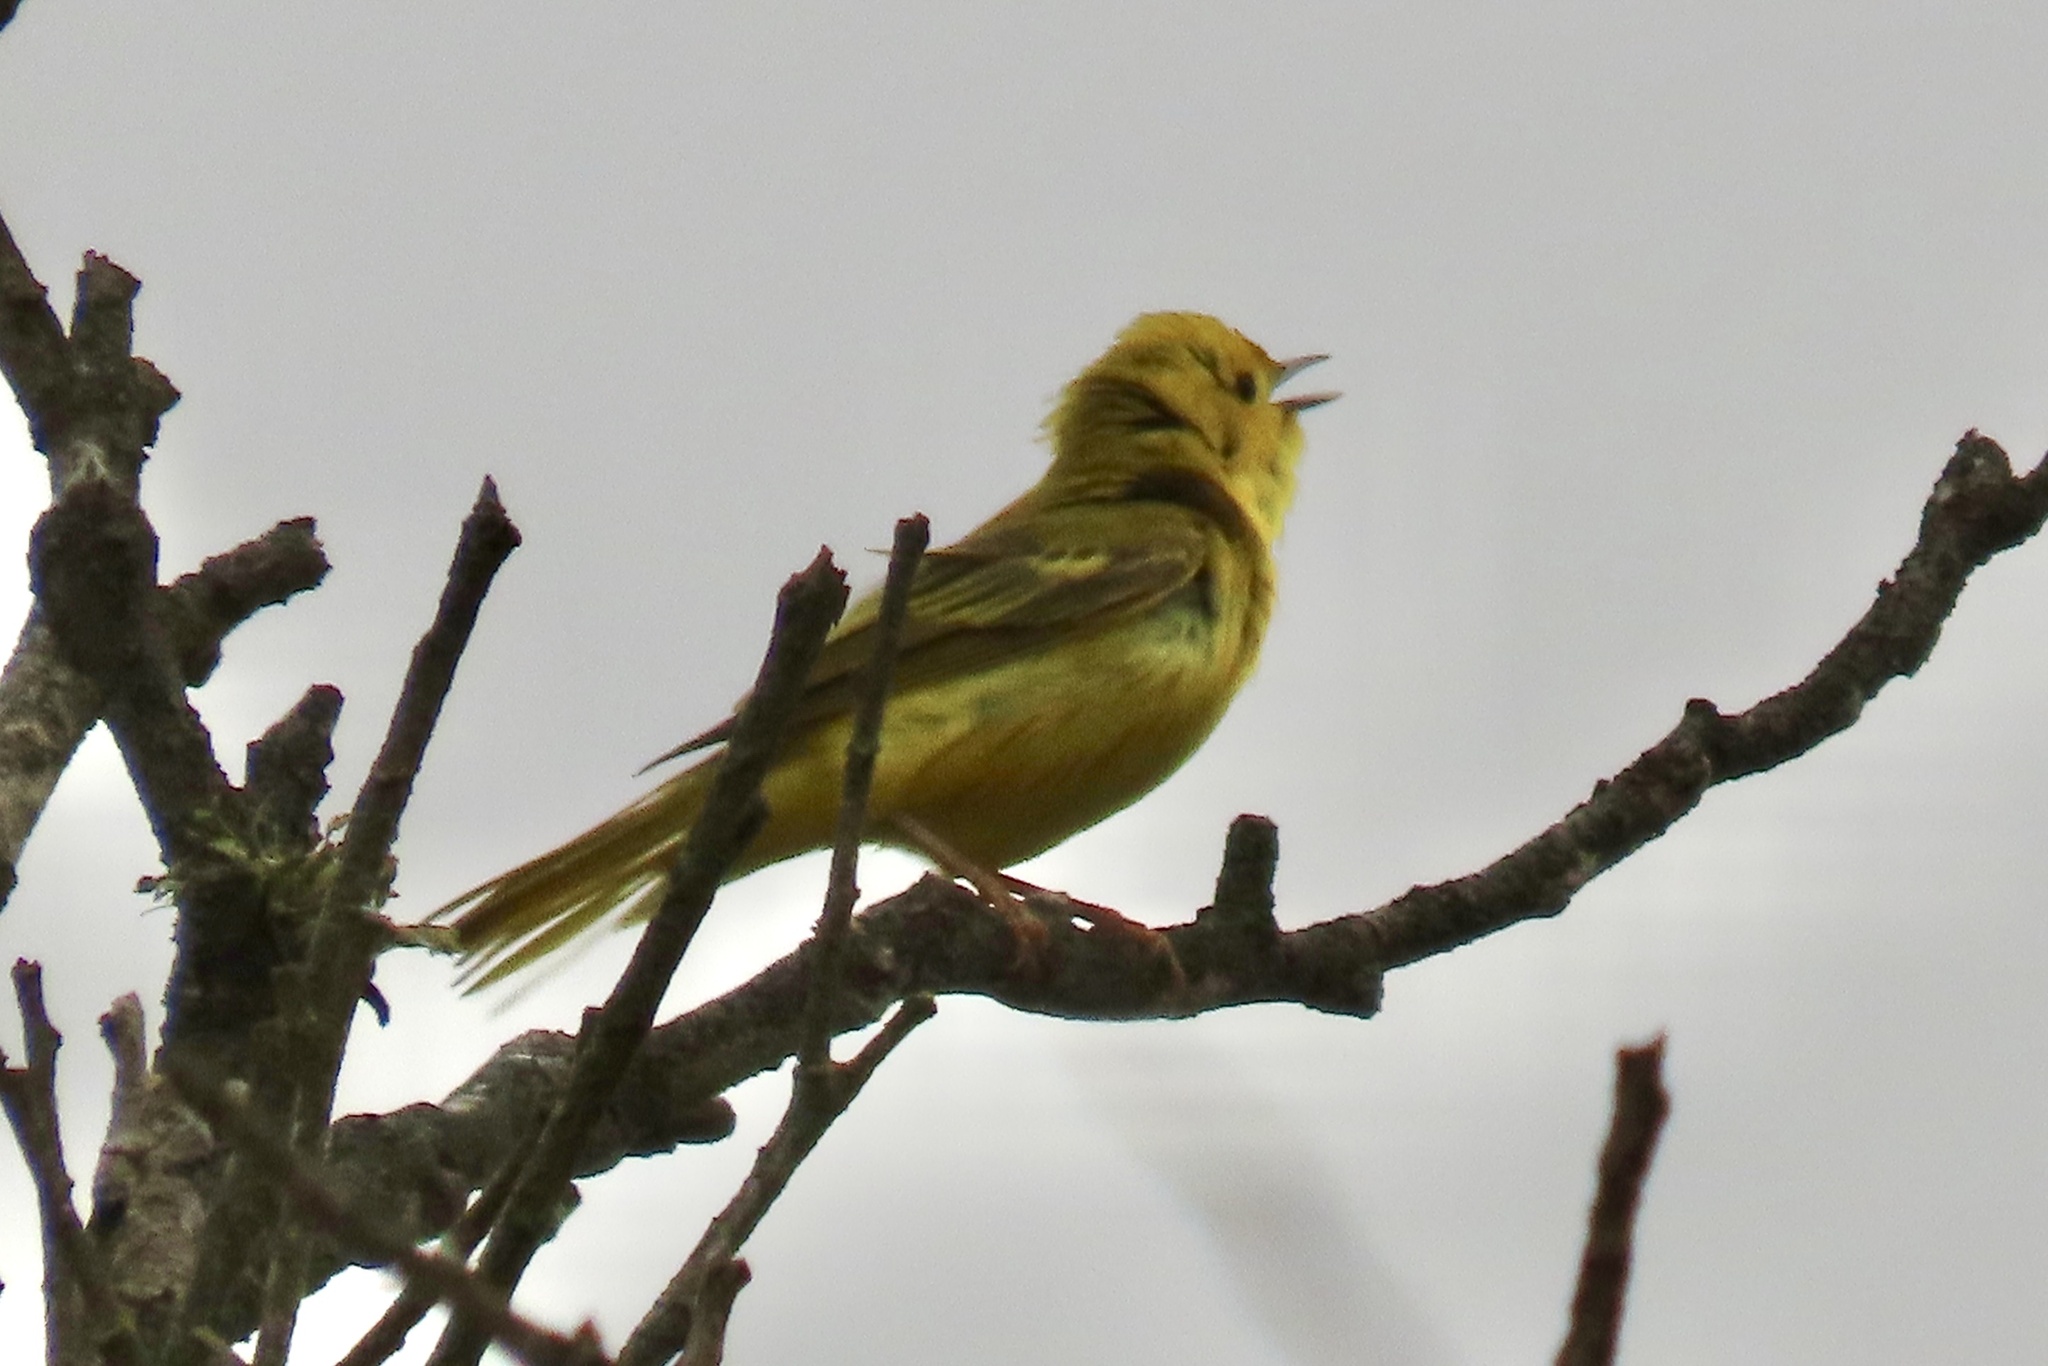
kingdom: Animalia
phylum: Chordata
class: Aves
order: Passeriformes
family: Parulidae
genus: Setophaga
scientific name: Setophaga petechia
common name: Yellow warbler
